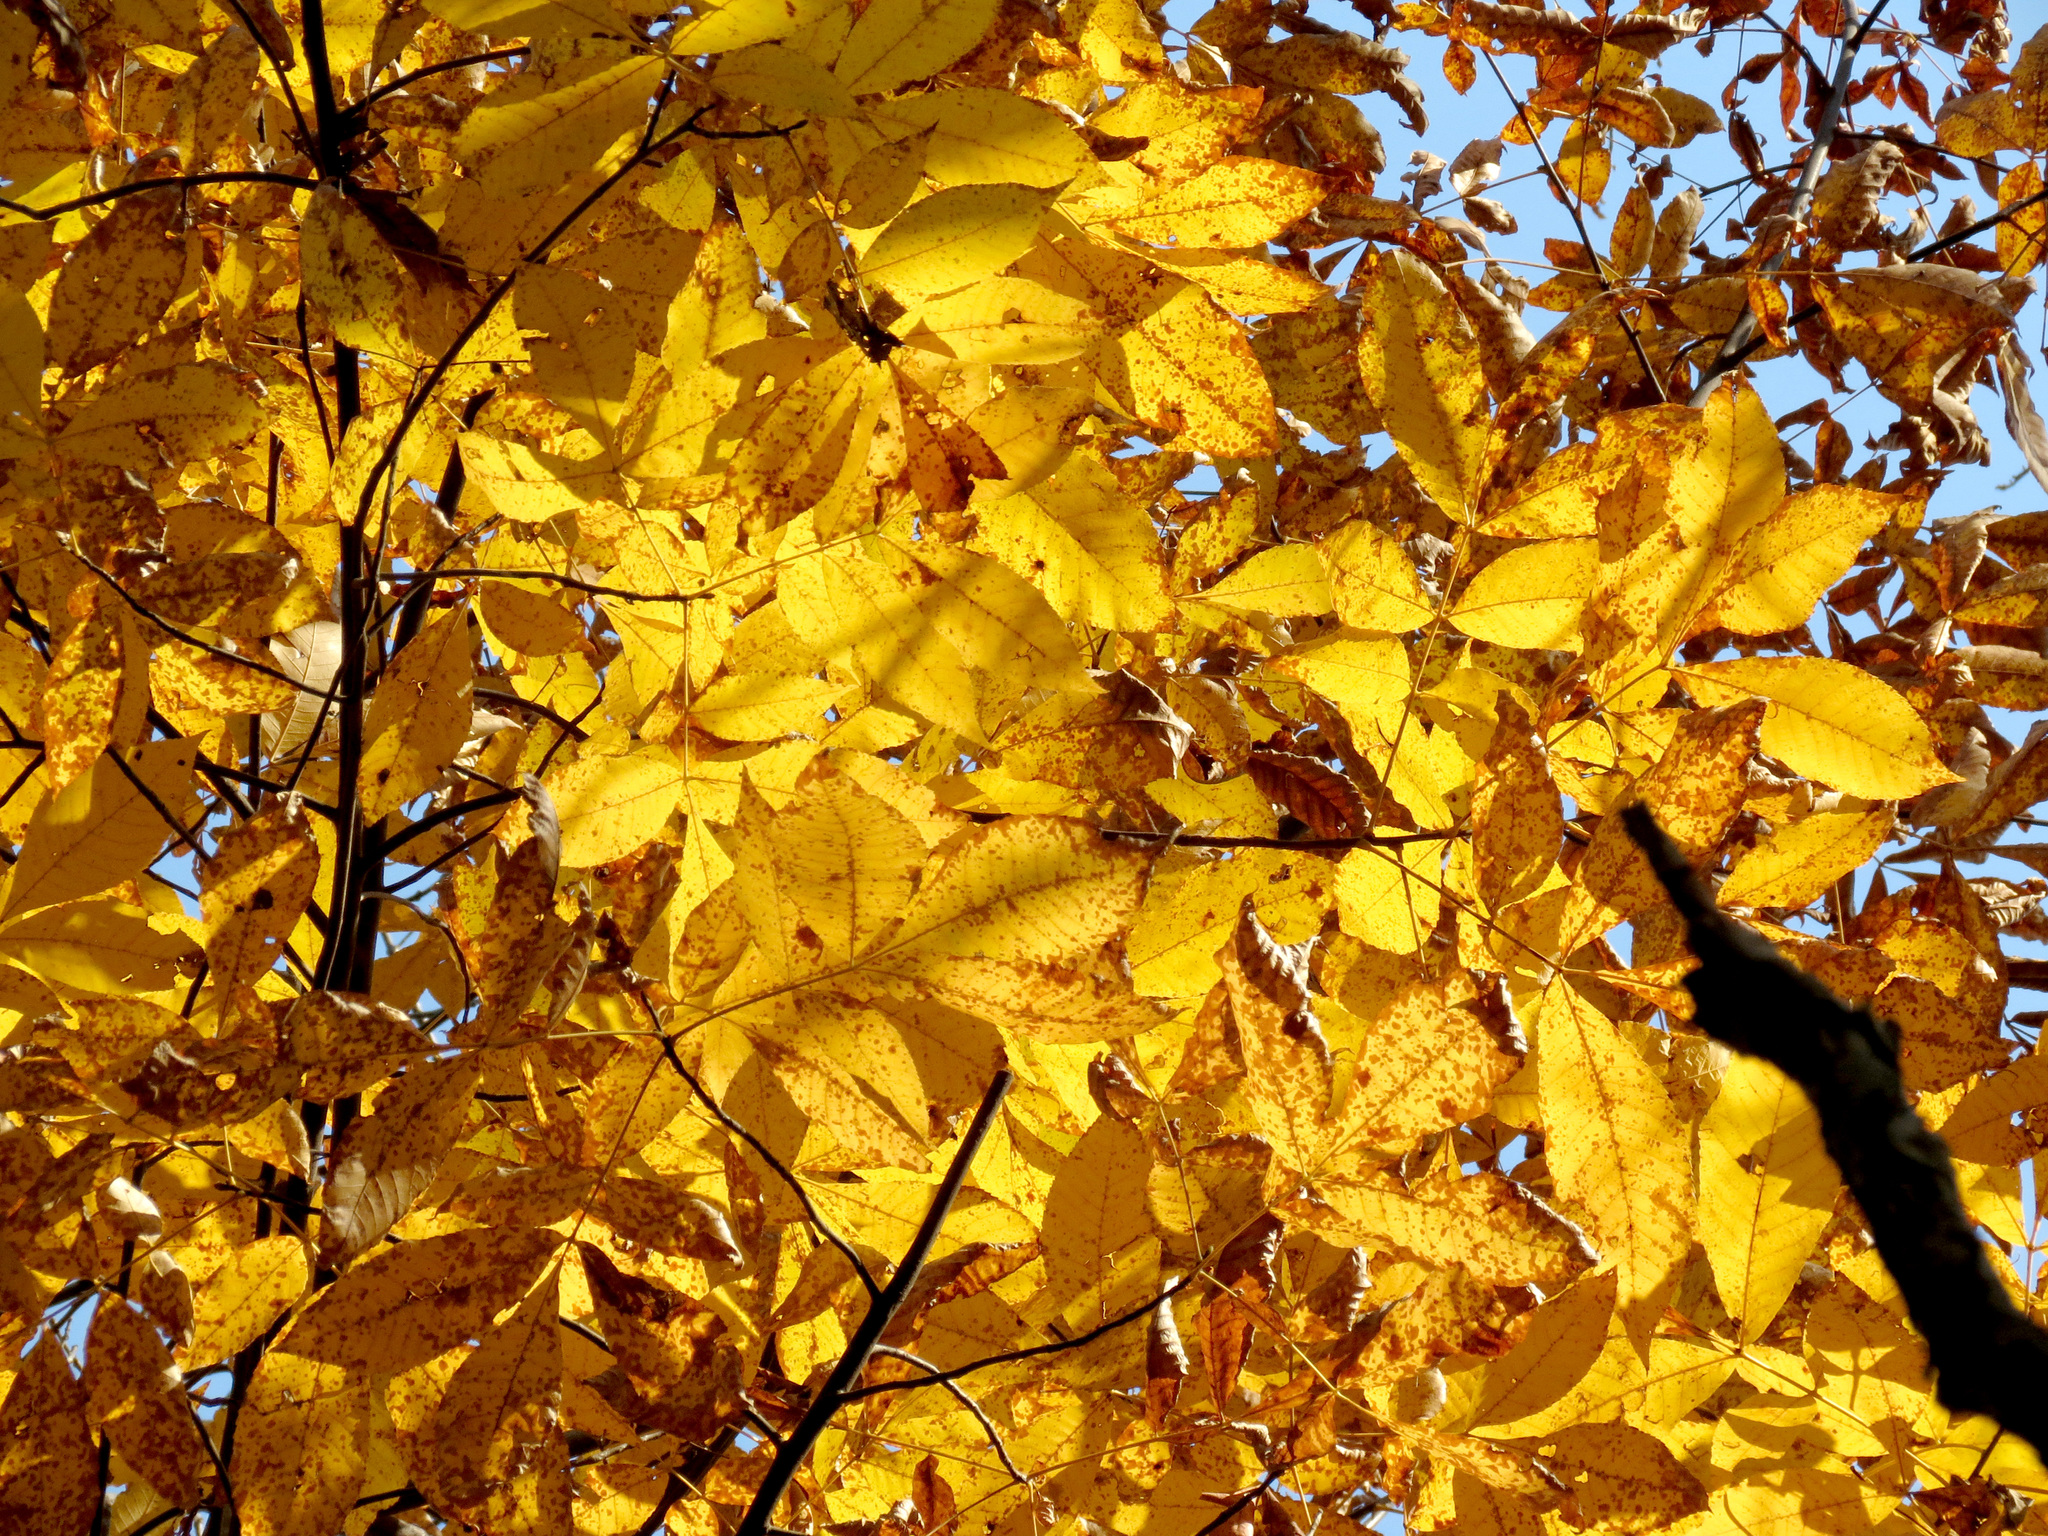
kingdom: Plantae
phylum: Tracheophyta
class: Magnoliopsida
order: Fagales
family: Juglandaceae
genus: Carya
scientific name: Carya glabra
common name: Pignut hickory
